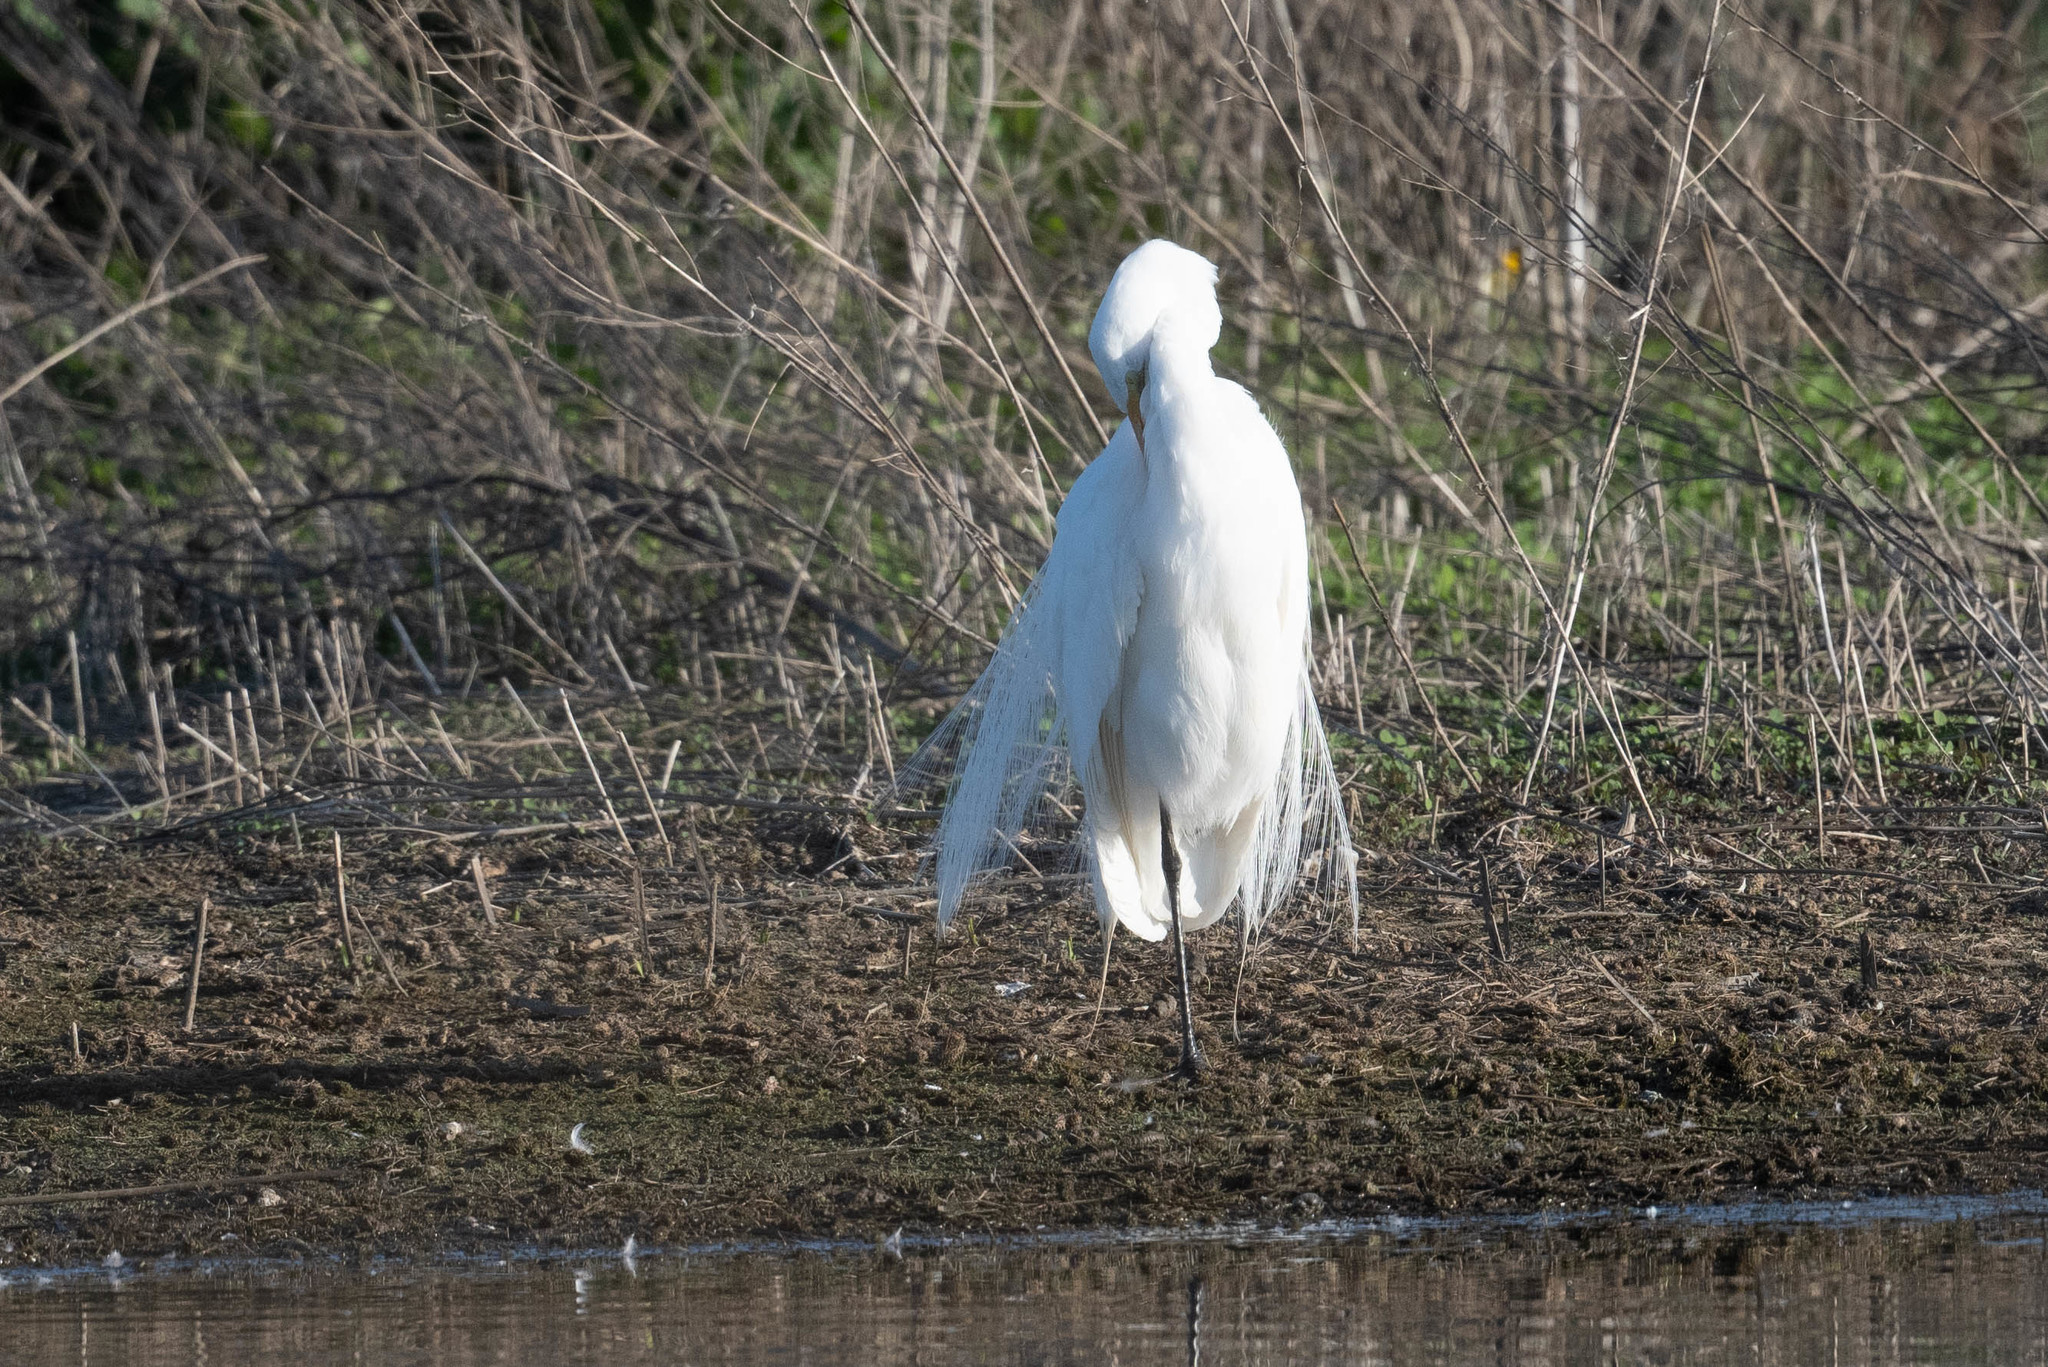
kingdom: Animalia
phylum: Chordata
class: Aves
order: Pelecaniformes
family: Ardeidae
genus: Ardea
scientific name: Ardea alba
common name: Great egret
